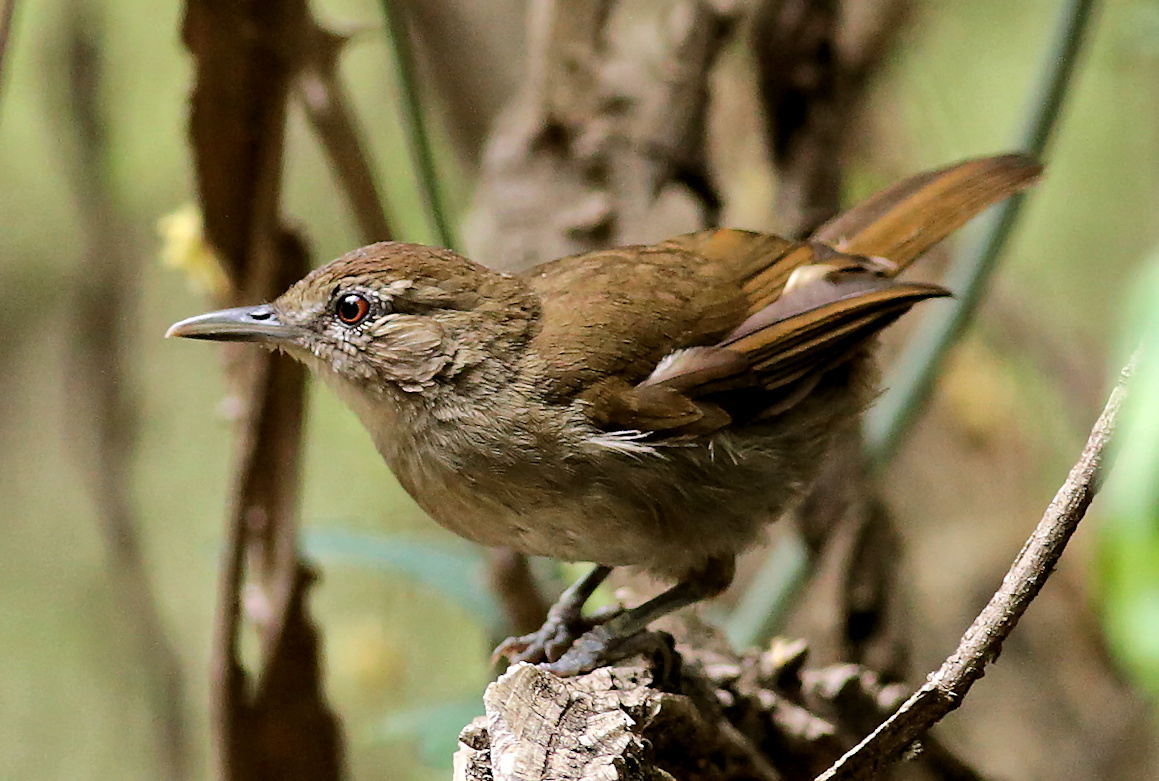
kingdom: Animalia
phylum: Chordata
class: Aves
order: Passeriformes
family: Pycnonotidae
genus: Phyllastrephus
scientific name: Phyllastrephus terrestris
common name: Terrestrial brownbul
